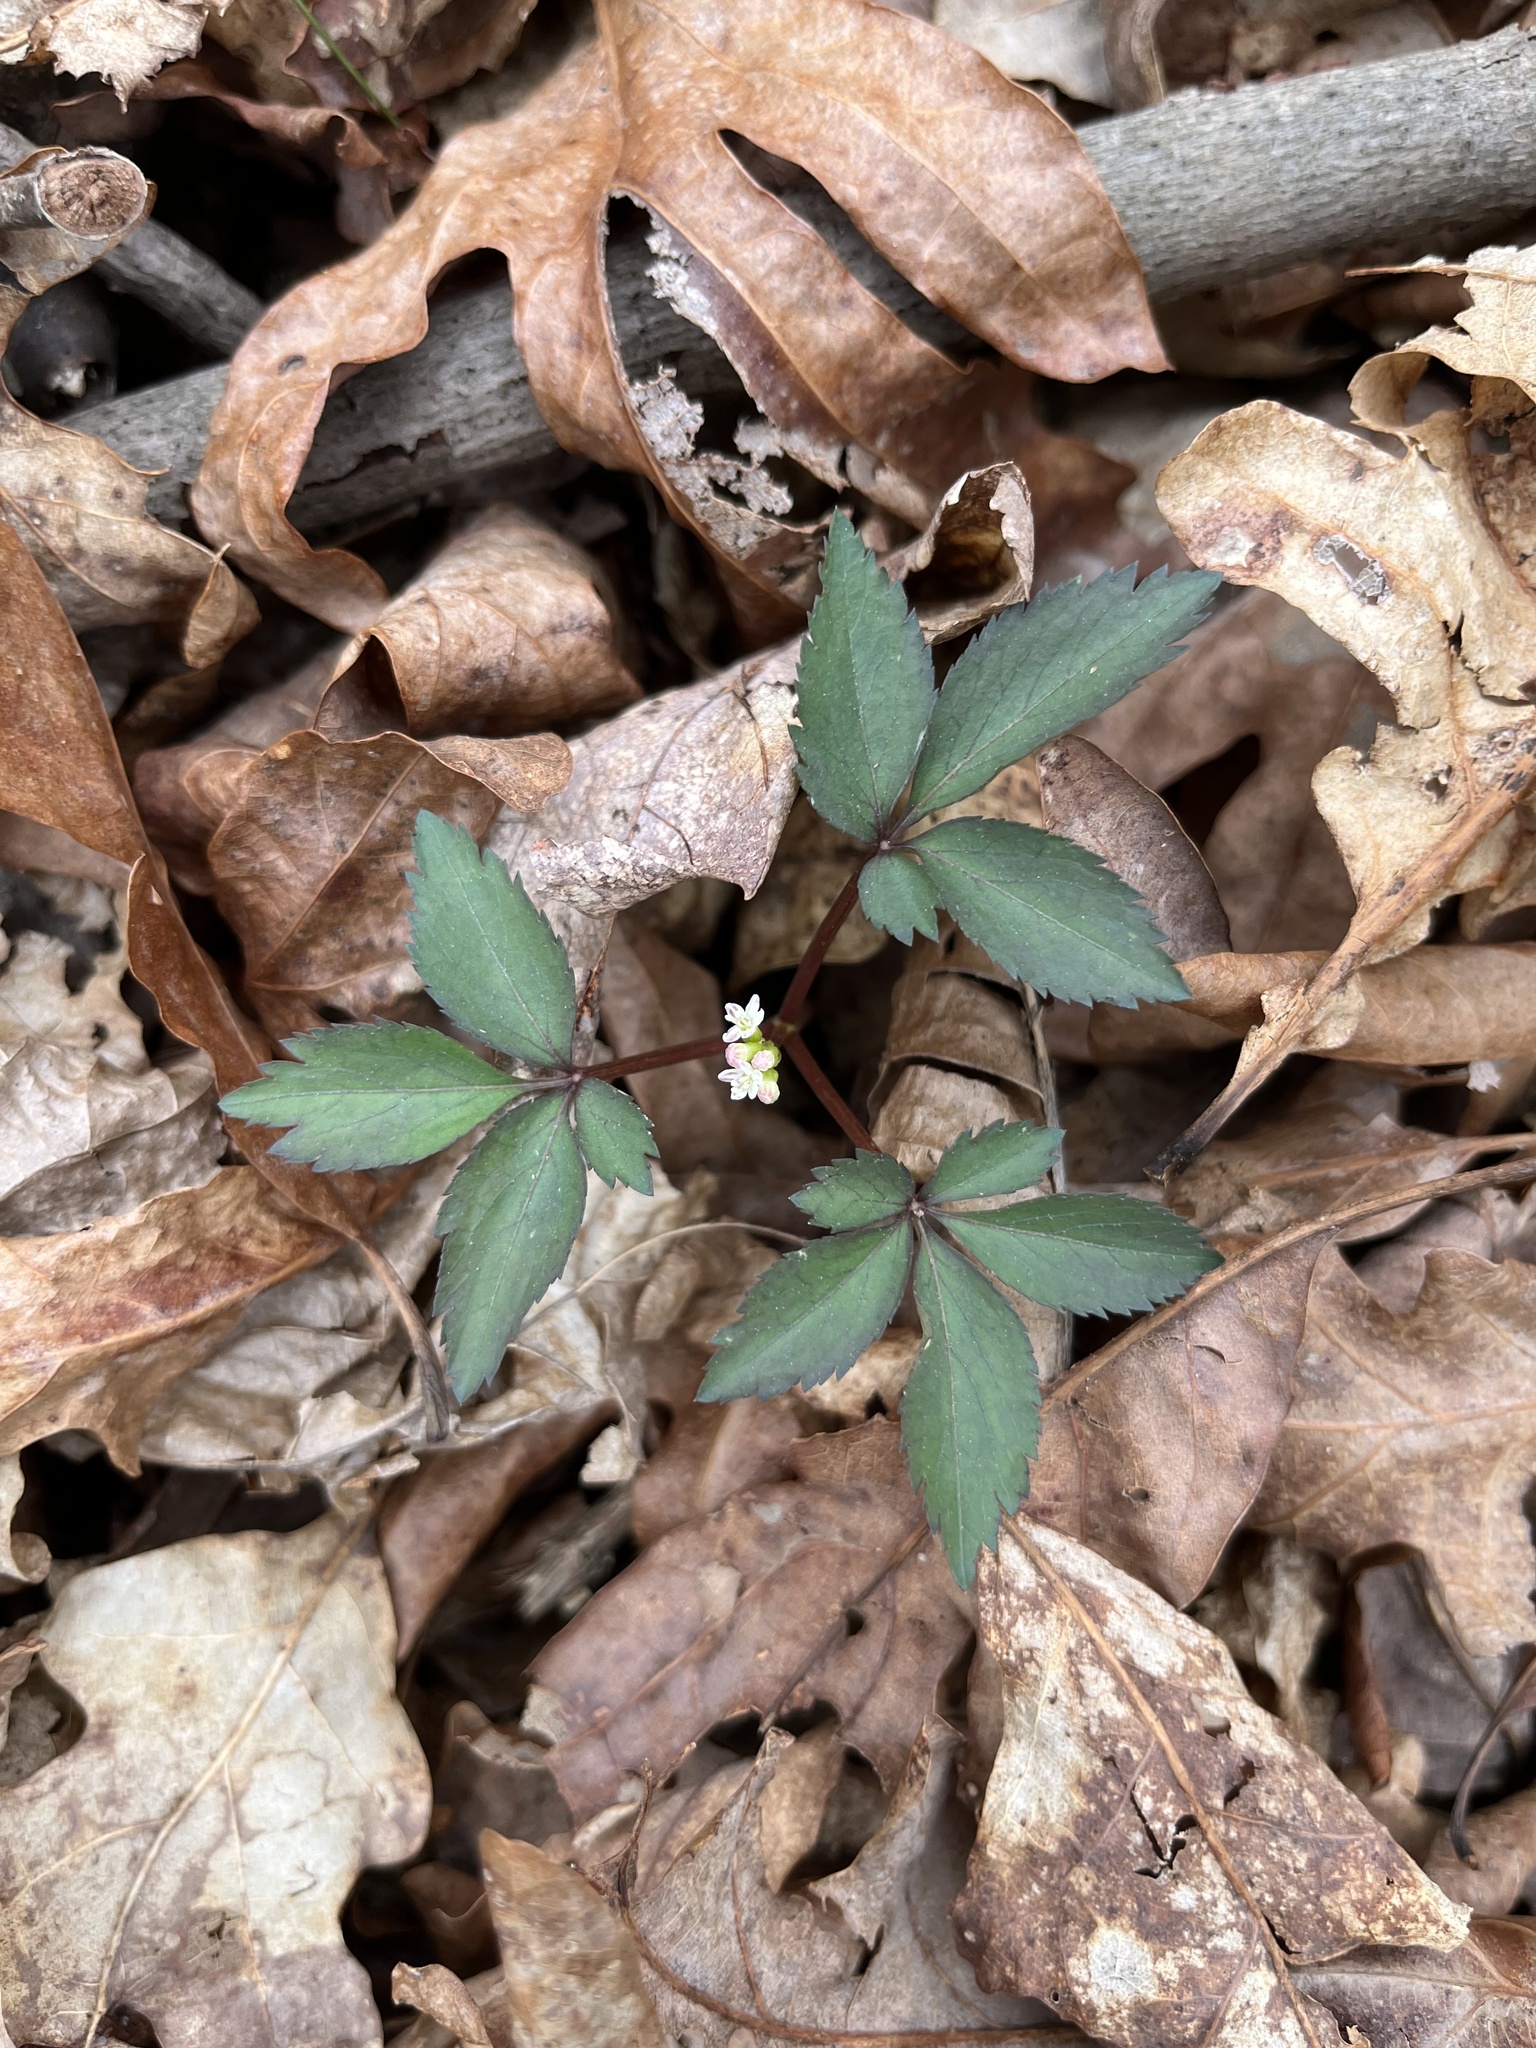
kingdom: Plantae
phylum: Tracheophyta
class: Magnoliopsida
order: Apiales
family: Araliaceae
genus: Panax
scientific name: Panax trifolius
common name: Dwarf ginseng
